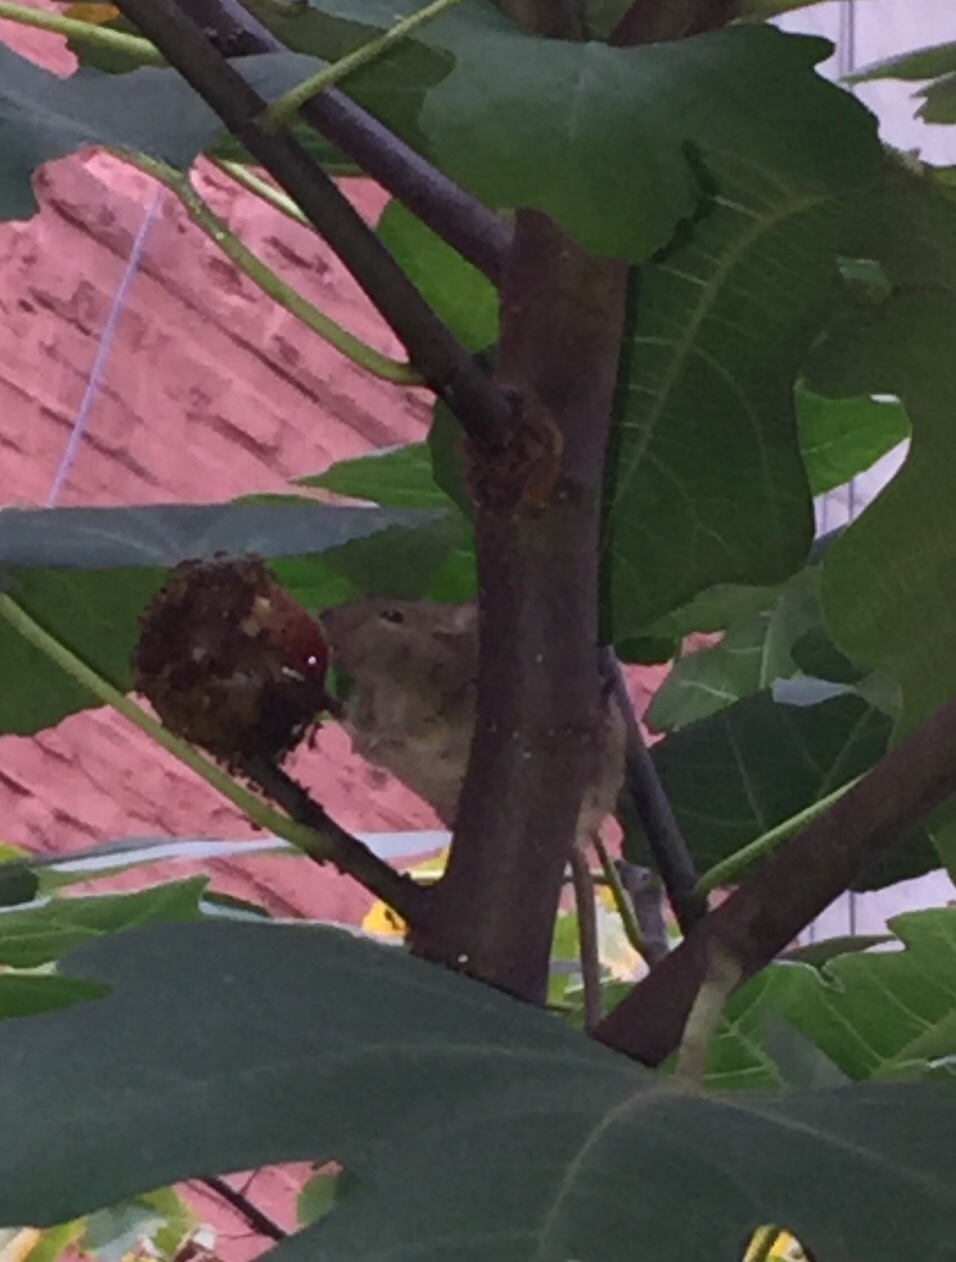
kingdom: Animalia
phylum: Chordata
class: Mammalia
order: Rodentia
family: Muridae
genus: Mus
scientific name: Mus musculus
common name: House mouse
